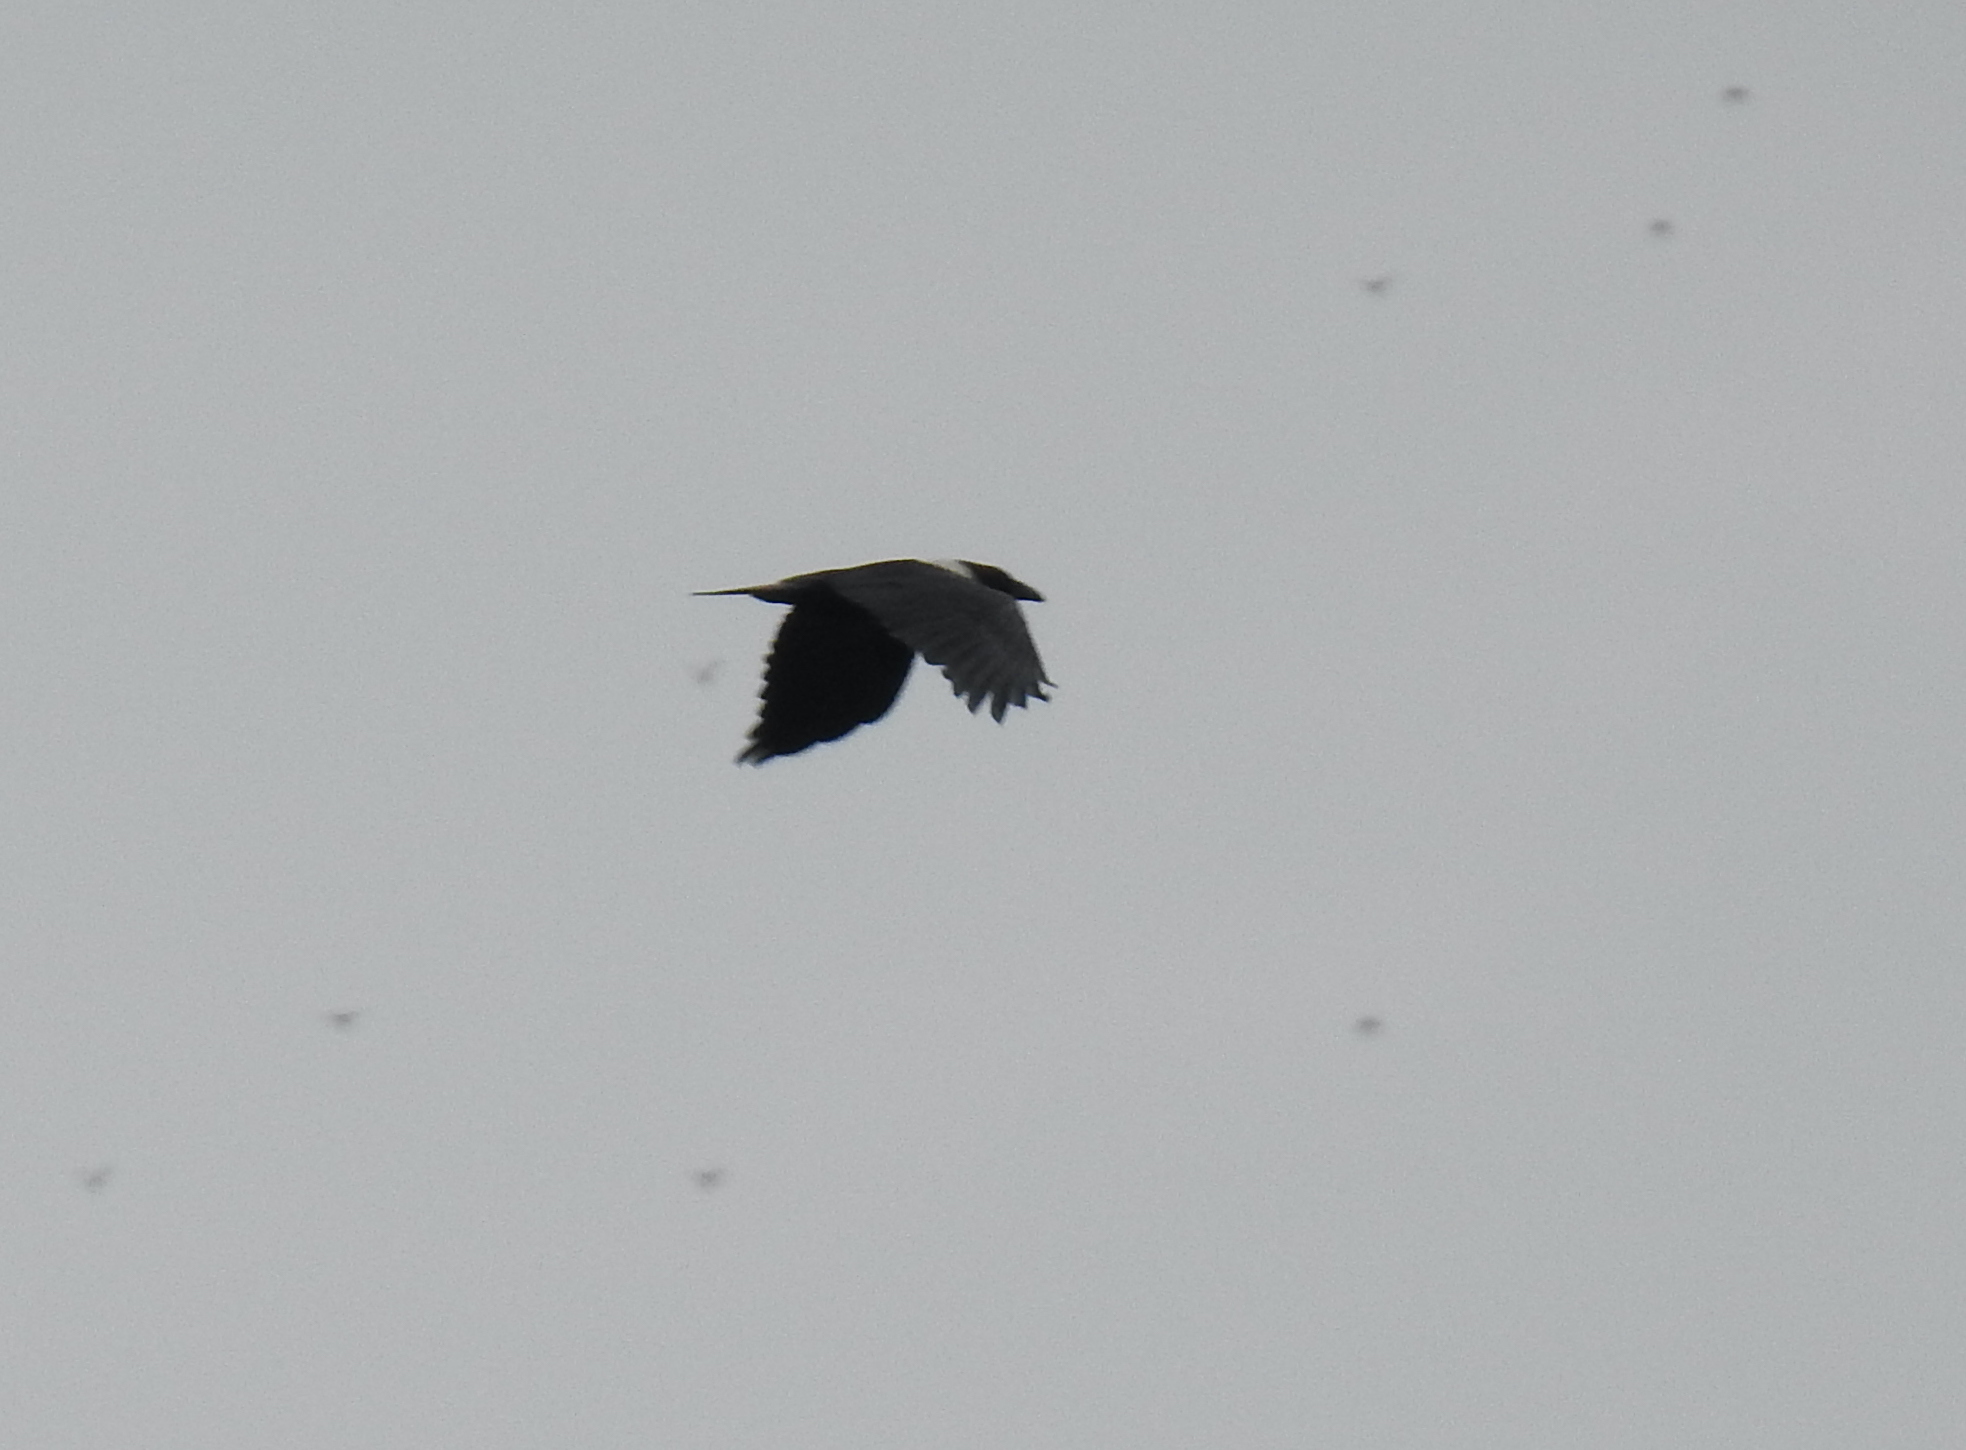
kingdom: Animalia
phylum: Chordata
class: Aves
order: Passeriformes
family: Corvidae
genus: Corvus
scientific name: Corvus albus
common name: Pied crow
